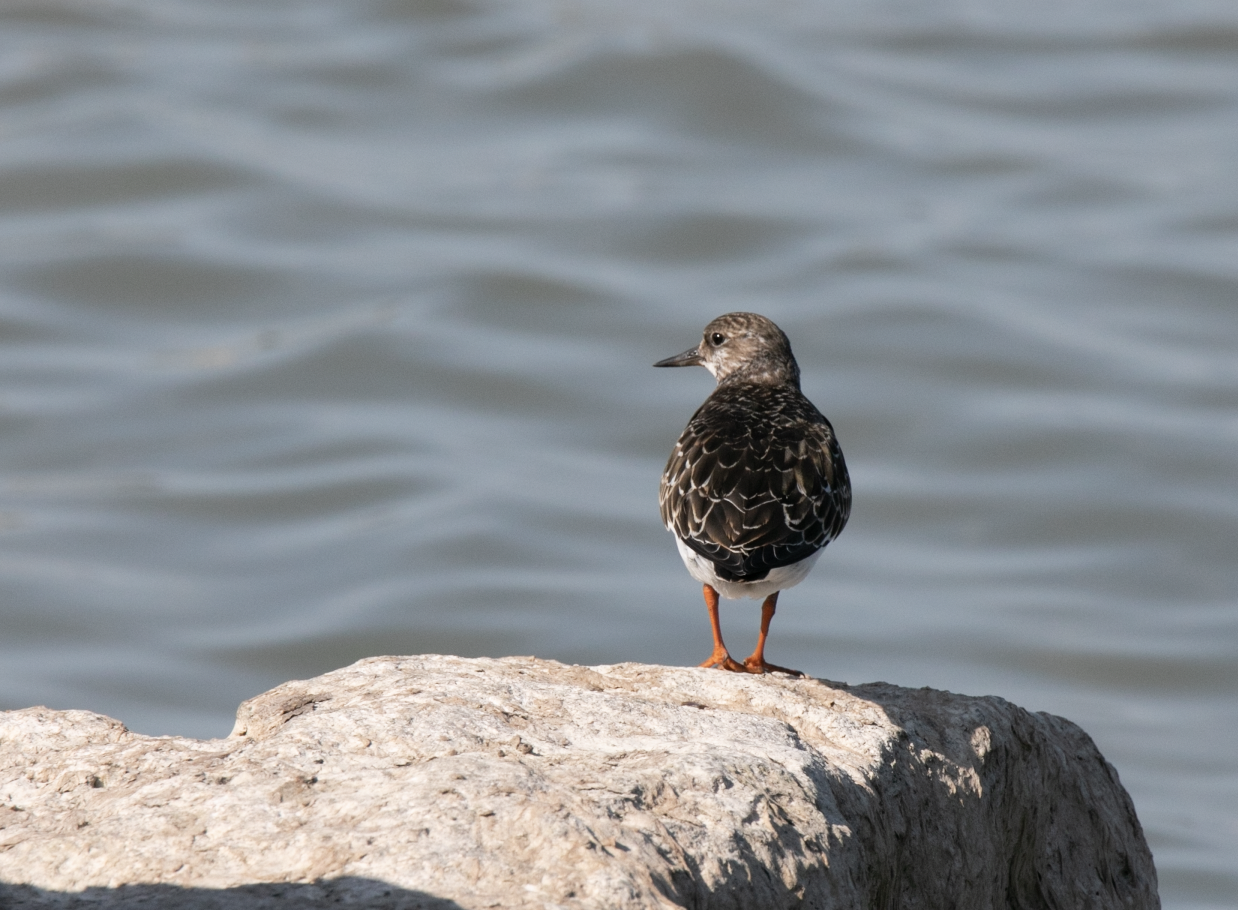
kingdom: Animalia
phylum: Chordata
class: Aves
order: Charadriiformes
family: Scolopacidae
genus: Arenaria
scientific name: Arenaria interpres
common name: Ruddy turnstone
